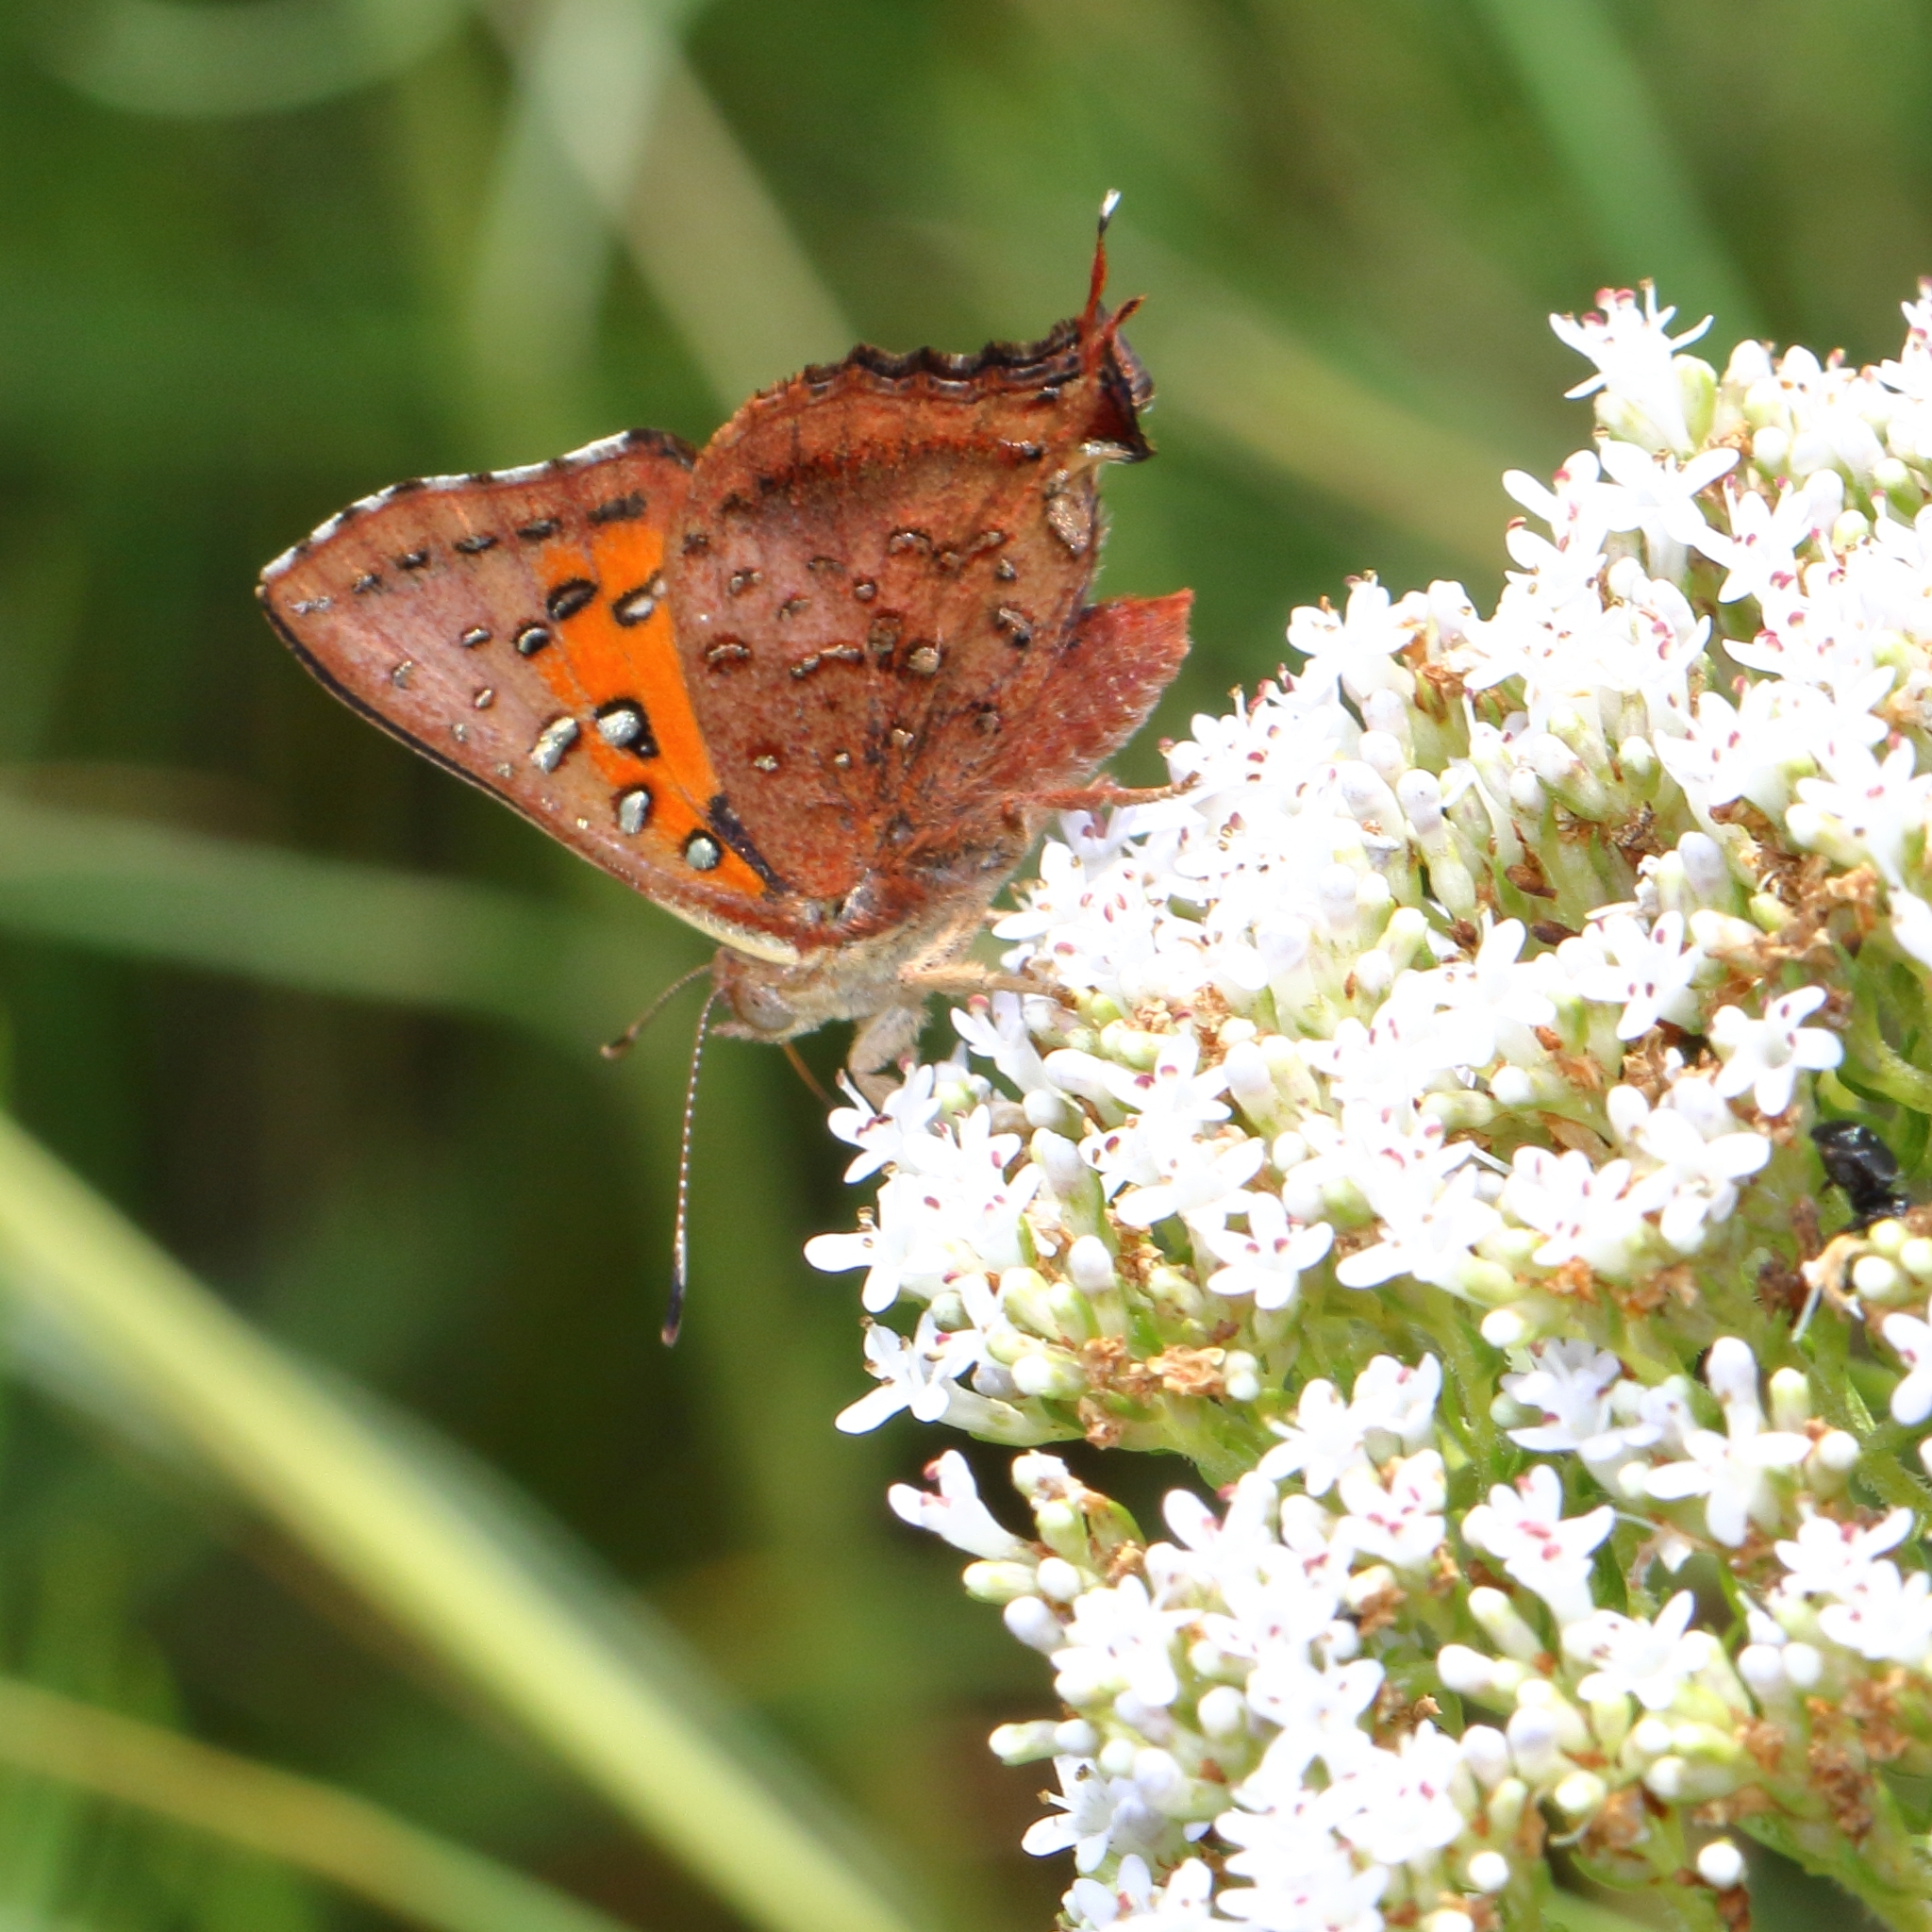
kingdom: Animalia
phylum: Arthropoda
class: Insecta
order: Lepidoptera
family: Lycaenidae
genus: Axiocerses
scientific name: Axiocerses perion
